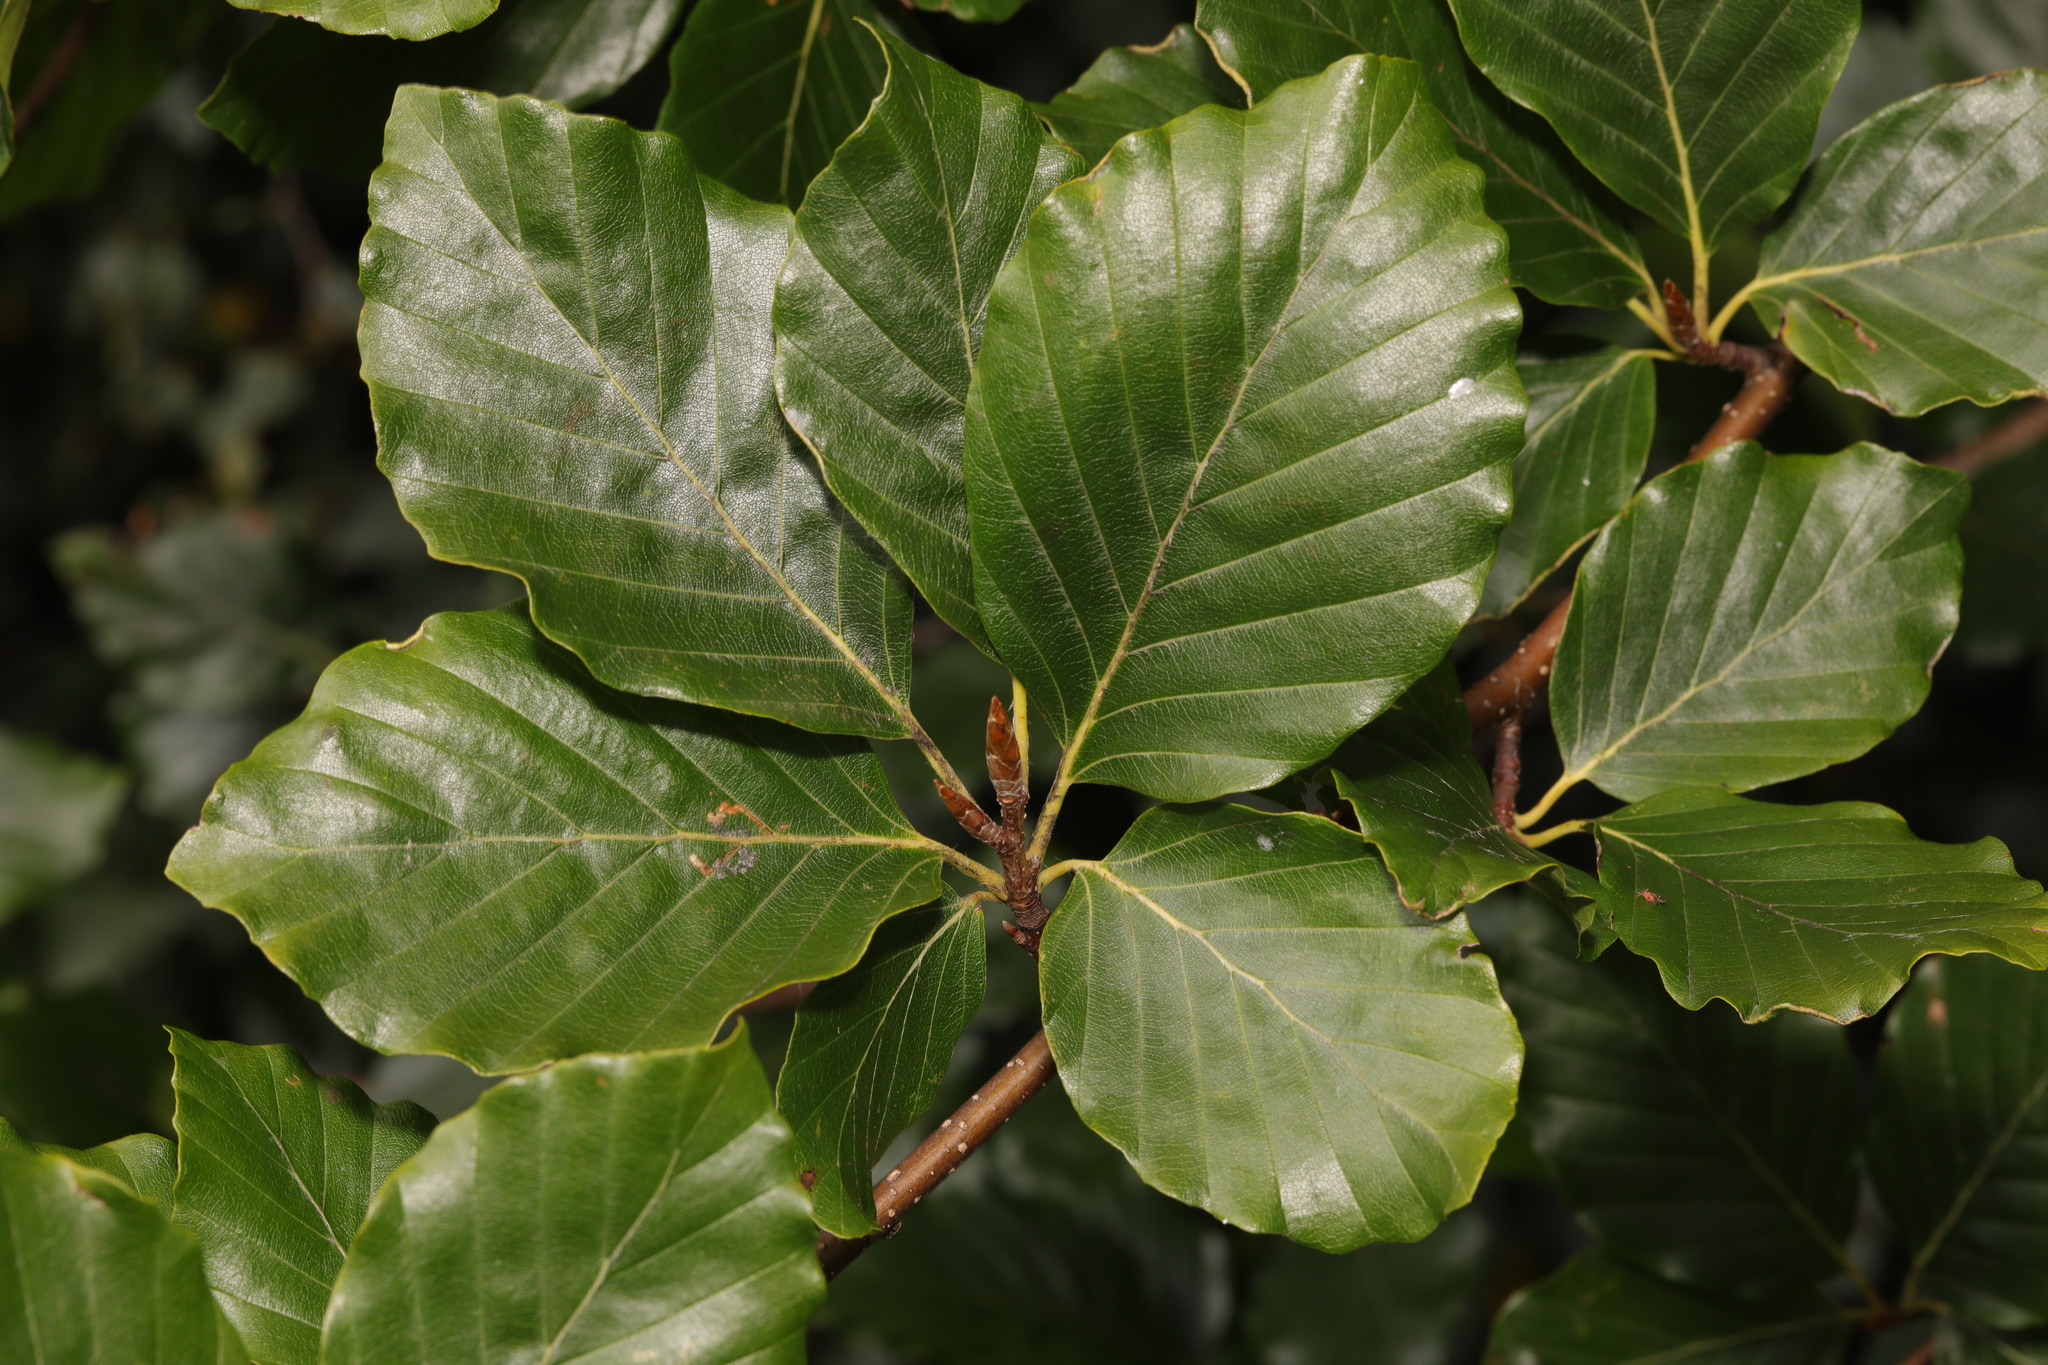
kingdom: Plantae
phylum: Tracheophyta
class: Magnoliopsida
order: Fagales
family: Fagaceae
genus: Fagus
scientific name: Fagus sylvatica
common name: Beech
